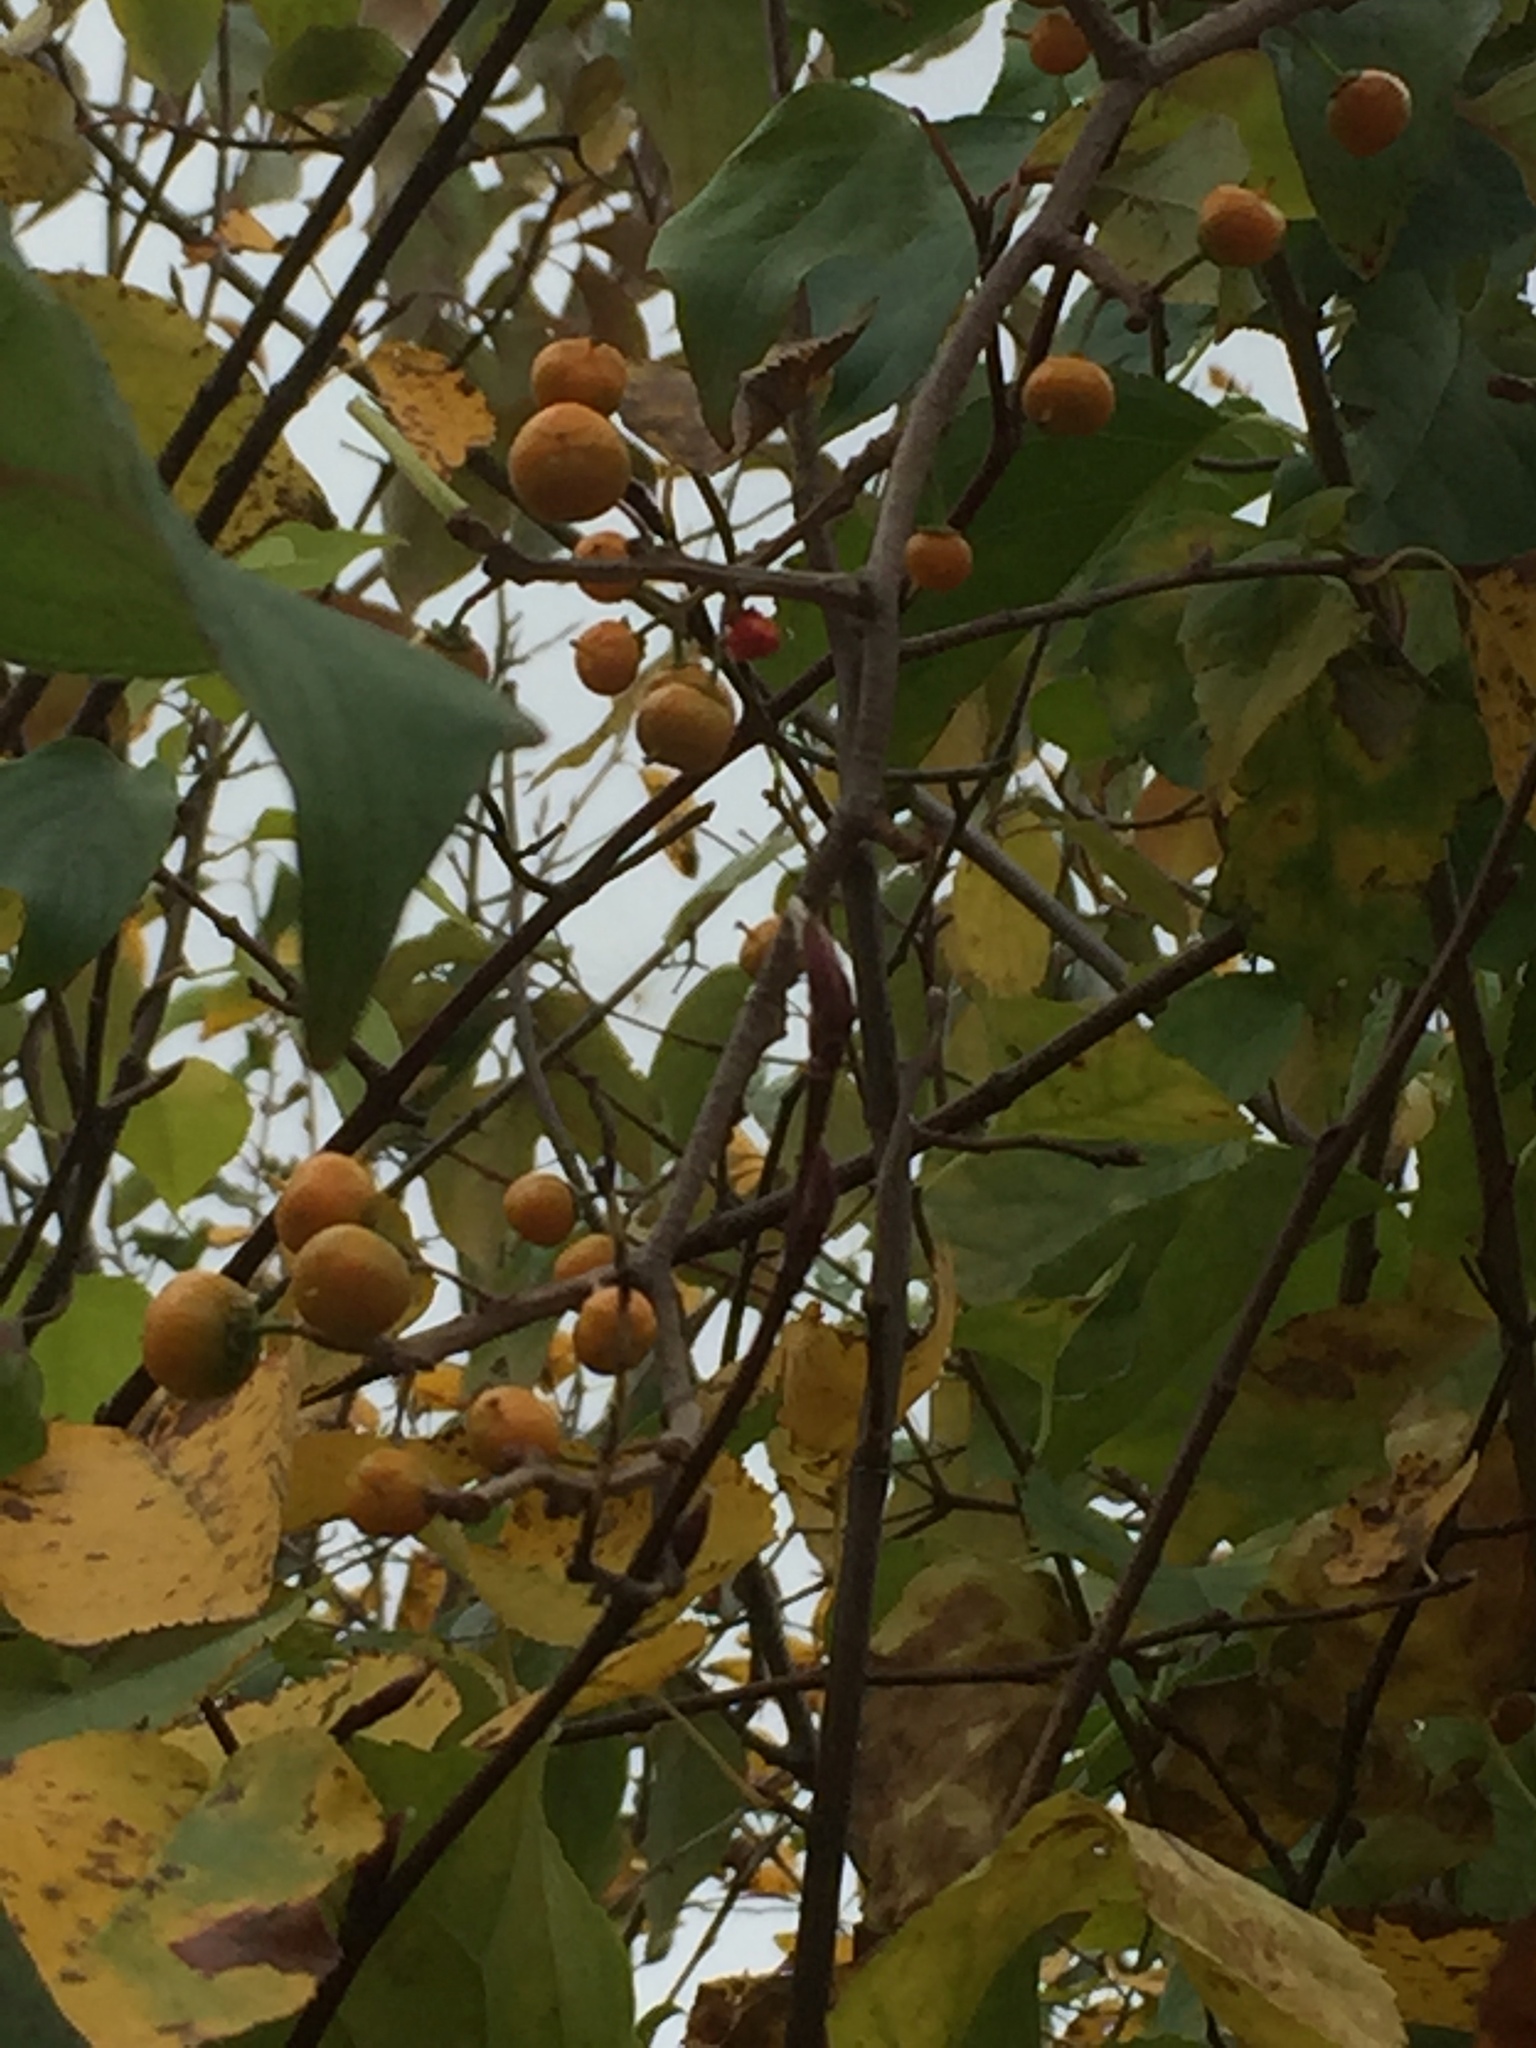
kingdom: Plantae
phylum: Tracheophyta
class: Magnoliopsida
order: Celastrales
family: Celastraceae
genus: Celastrus
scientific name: Celastrus orbiculatus
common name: Oriental bittersweet
